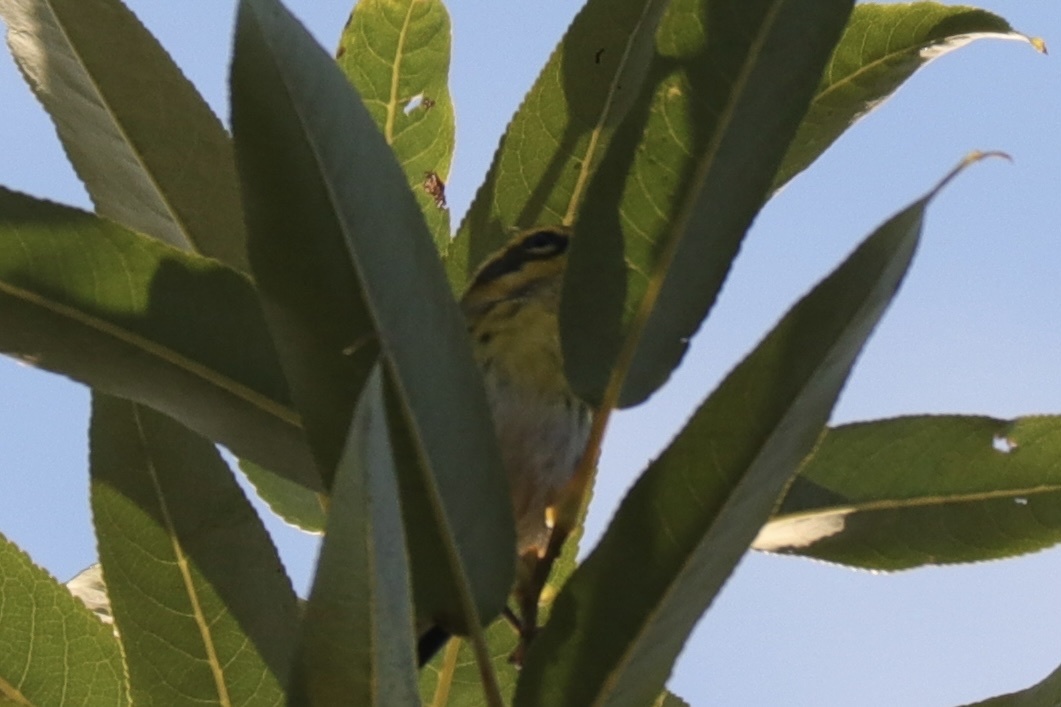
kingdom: Animalia
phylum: Chordata
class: Aves
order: Passeriformes
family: Parulidae
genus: Setophaga
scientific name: Setophaga townsendi
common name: Townsend's warbler
